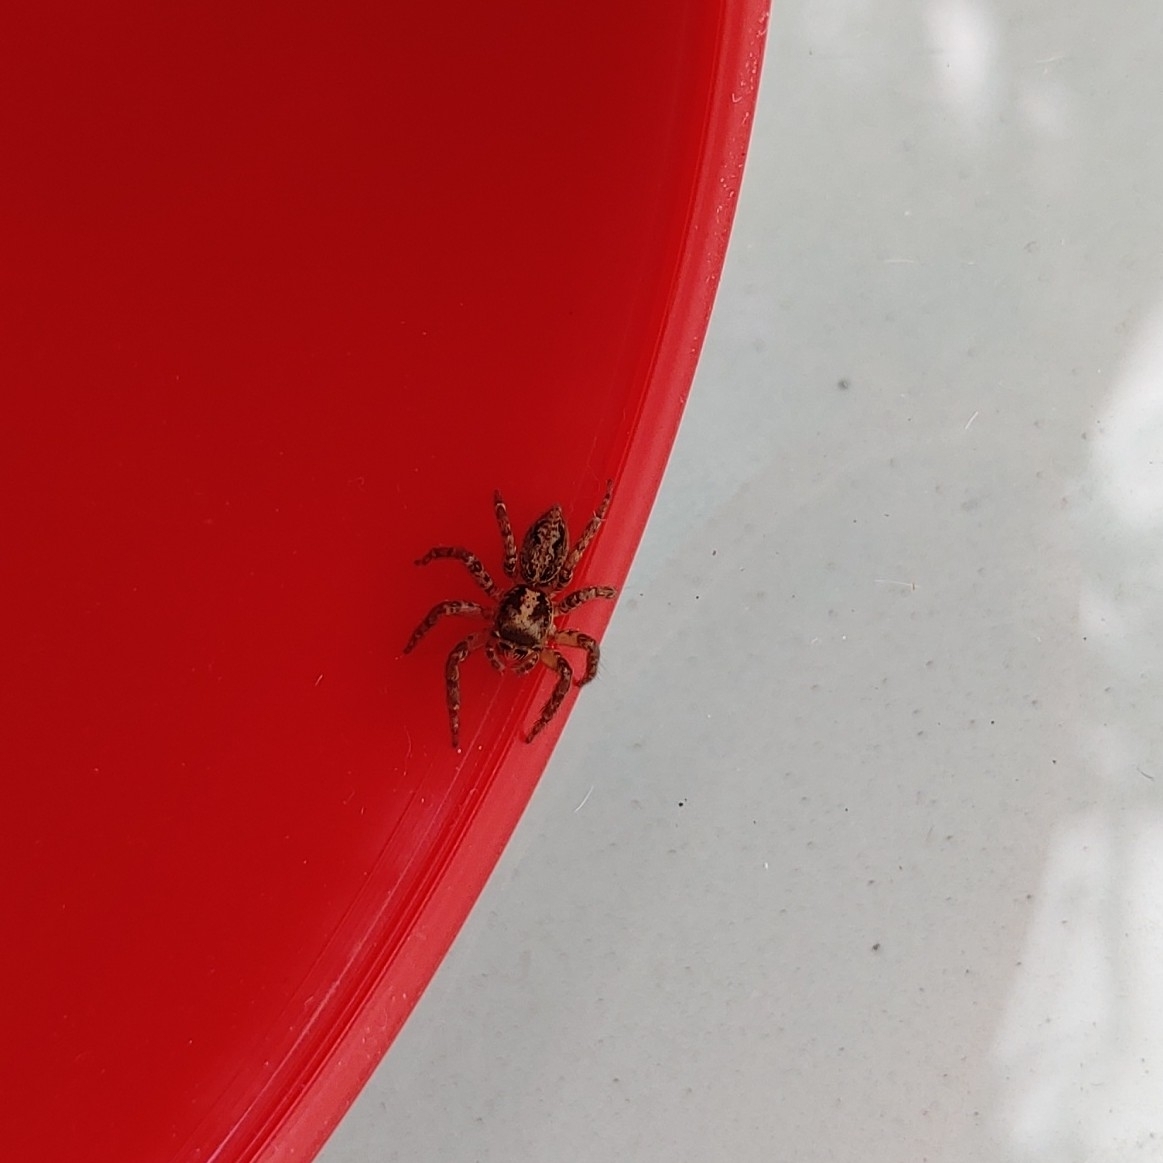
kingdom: Animalia
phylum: Arthropoda
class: Arachnida
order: Araneae
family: Salticidae
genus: Asaphobelis
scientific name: Asaphobelis physonychus
